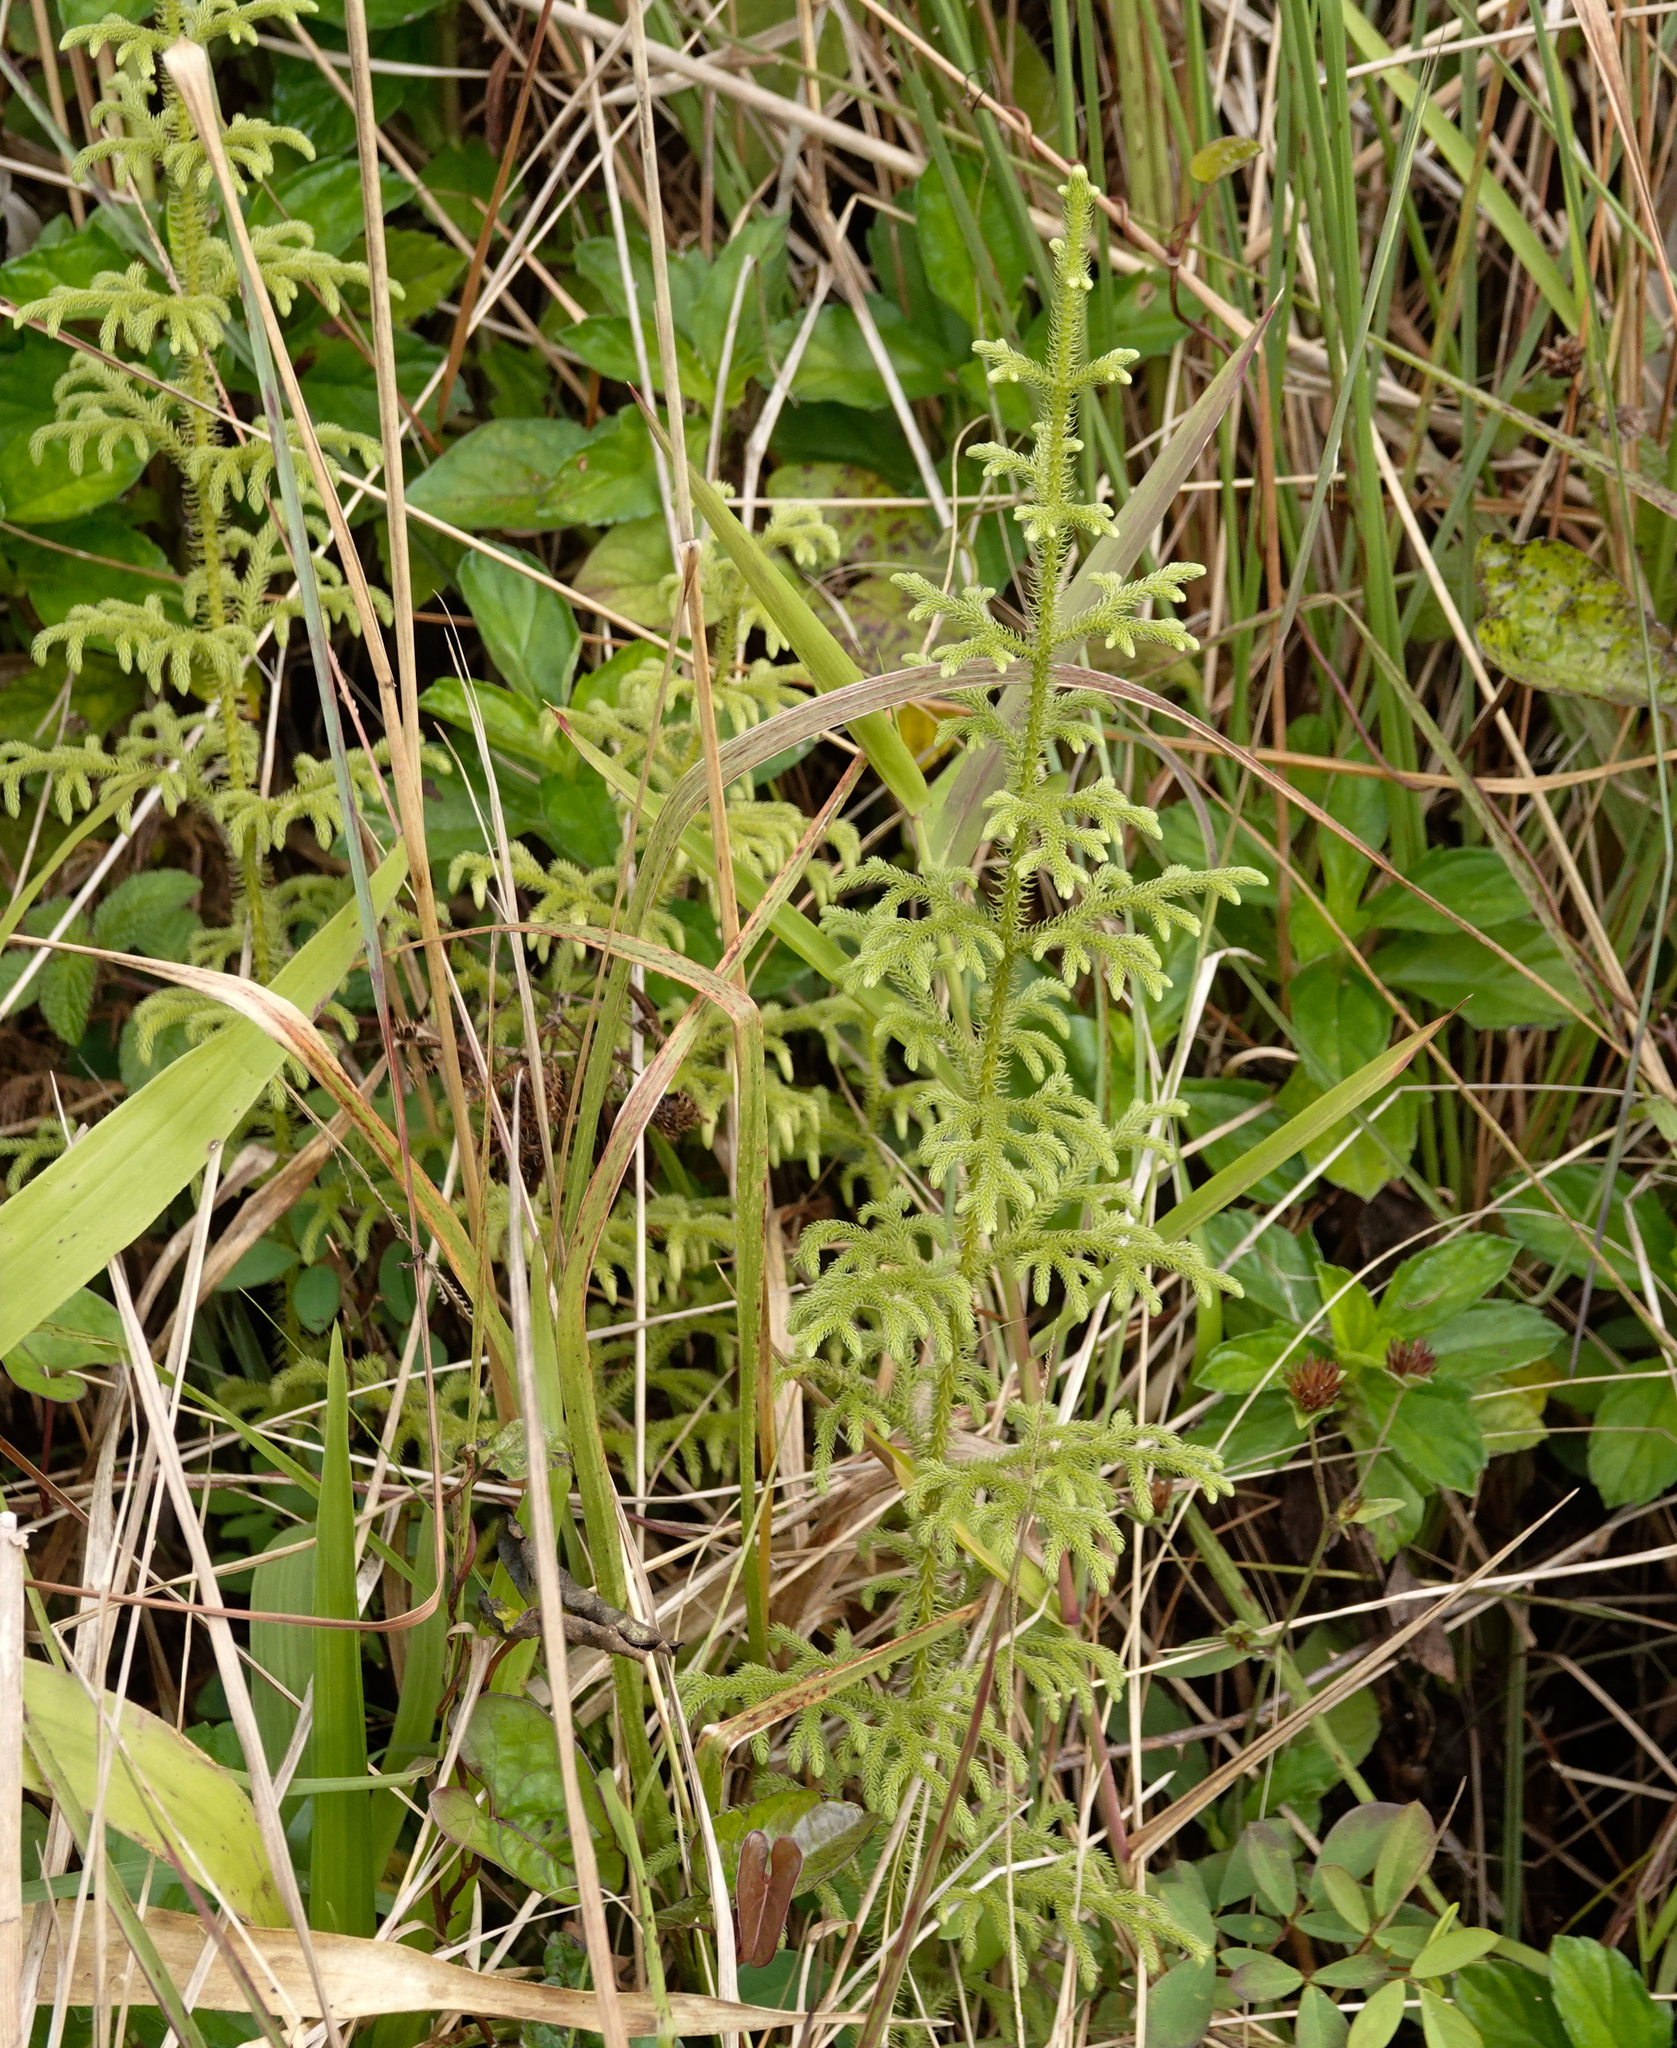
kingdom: Plantae
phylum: Tracheophyta
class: Lycopodiopsida
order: Lycopodiales
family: Lycopodiaceae
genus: Palhinhaea
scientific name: Palhinhaea cernua
